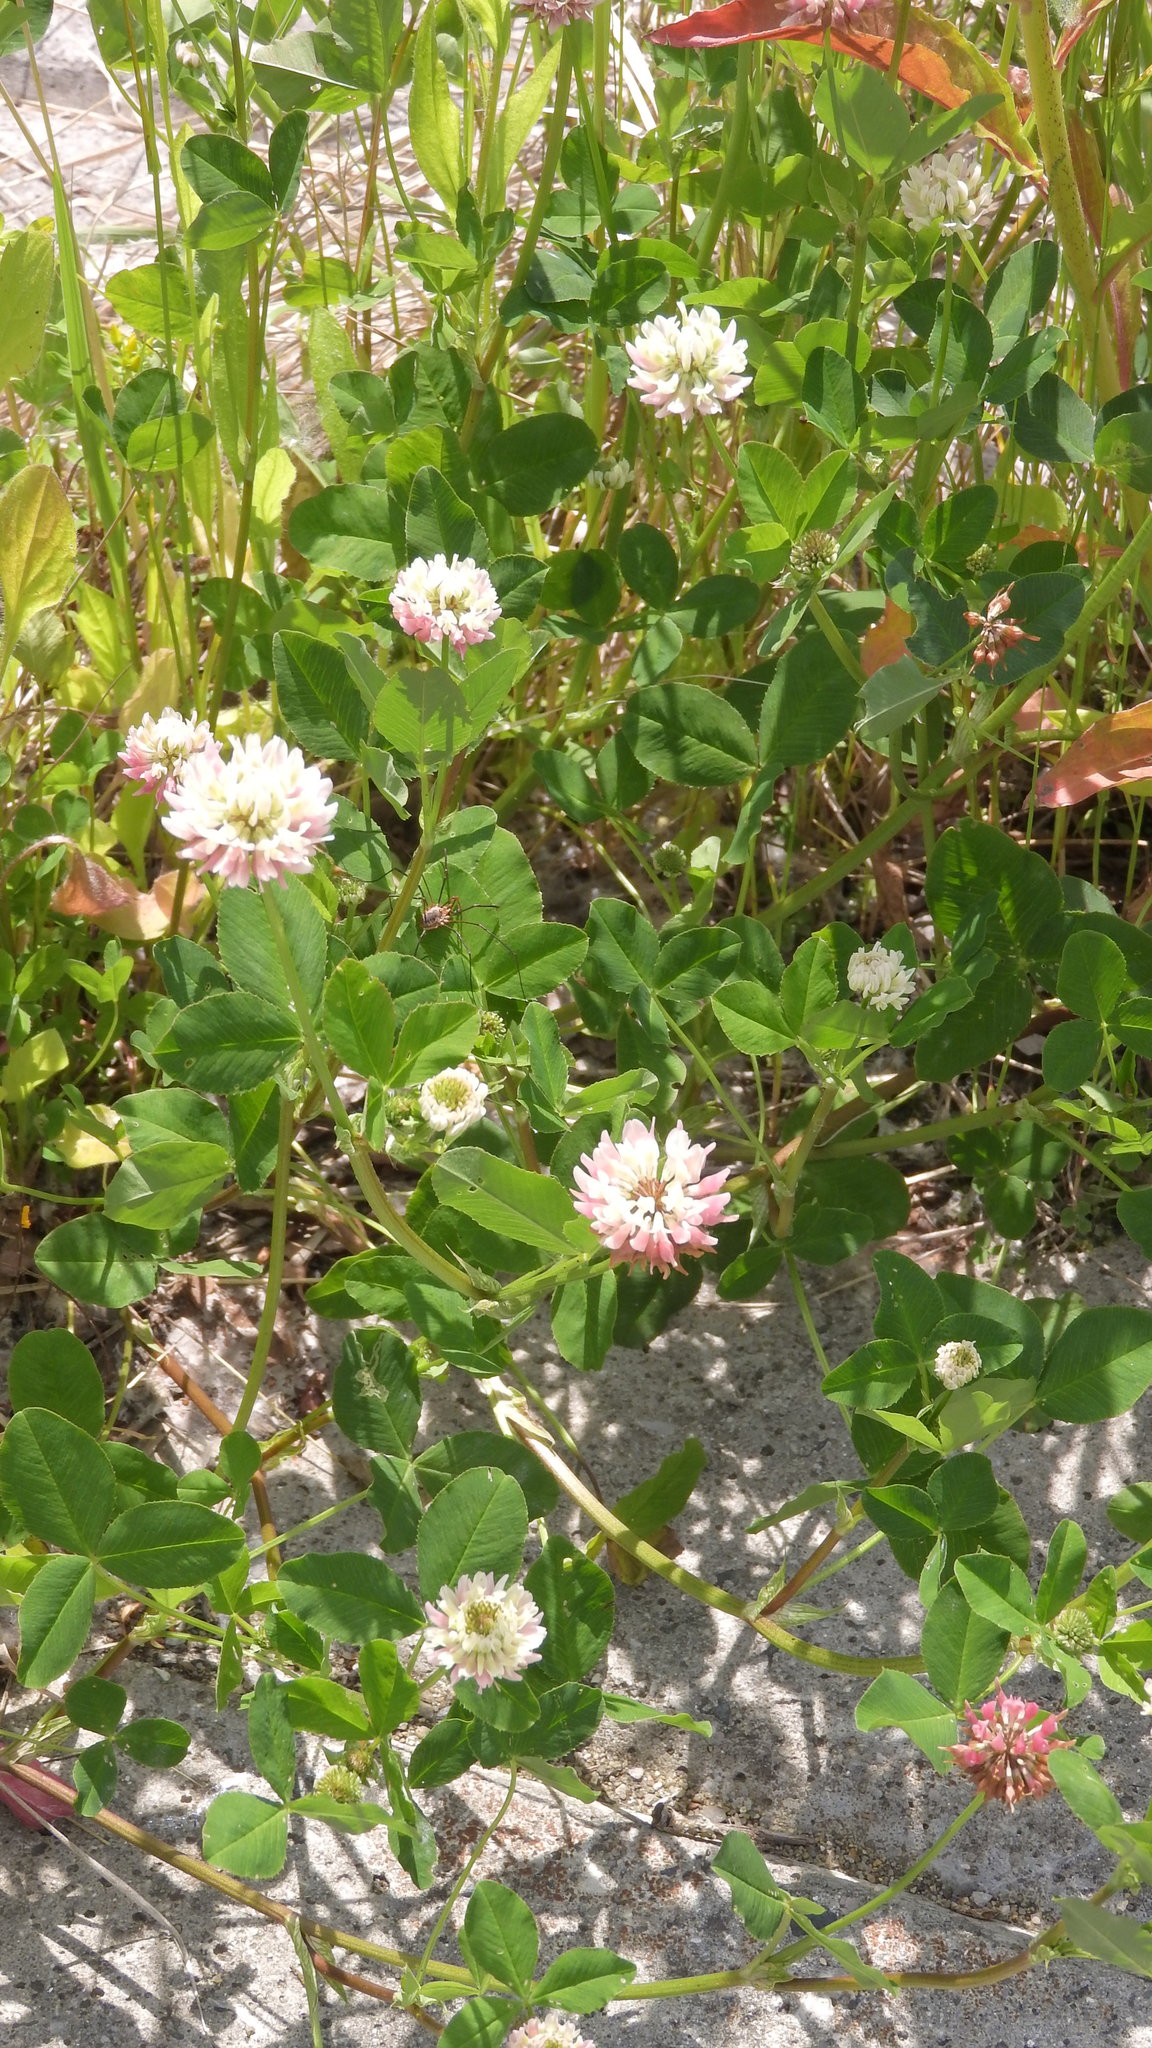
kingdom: Plantae
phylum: Tracheophyta
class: Magnoliopsida
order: Fabales
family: Fabaceae
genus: Trifolium
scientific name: Trifolium hybridum
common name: Alsike clover
